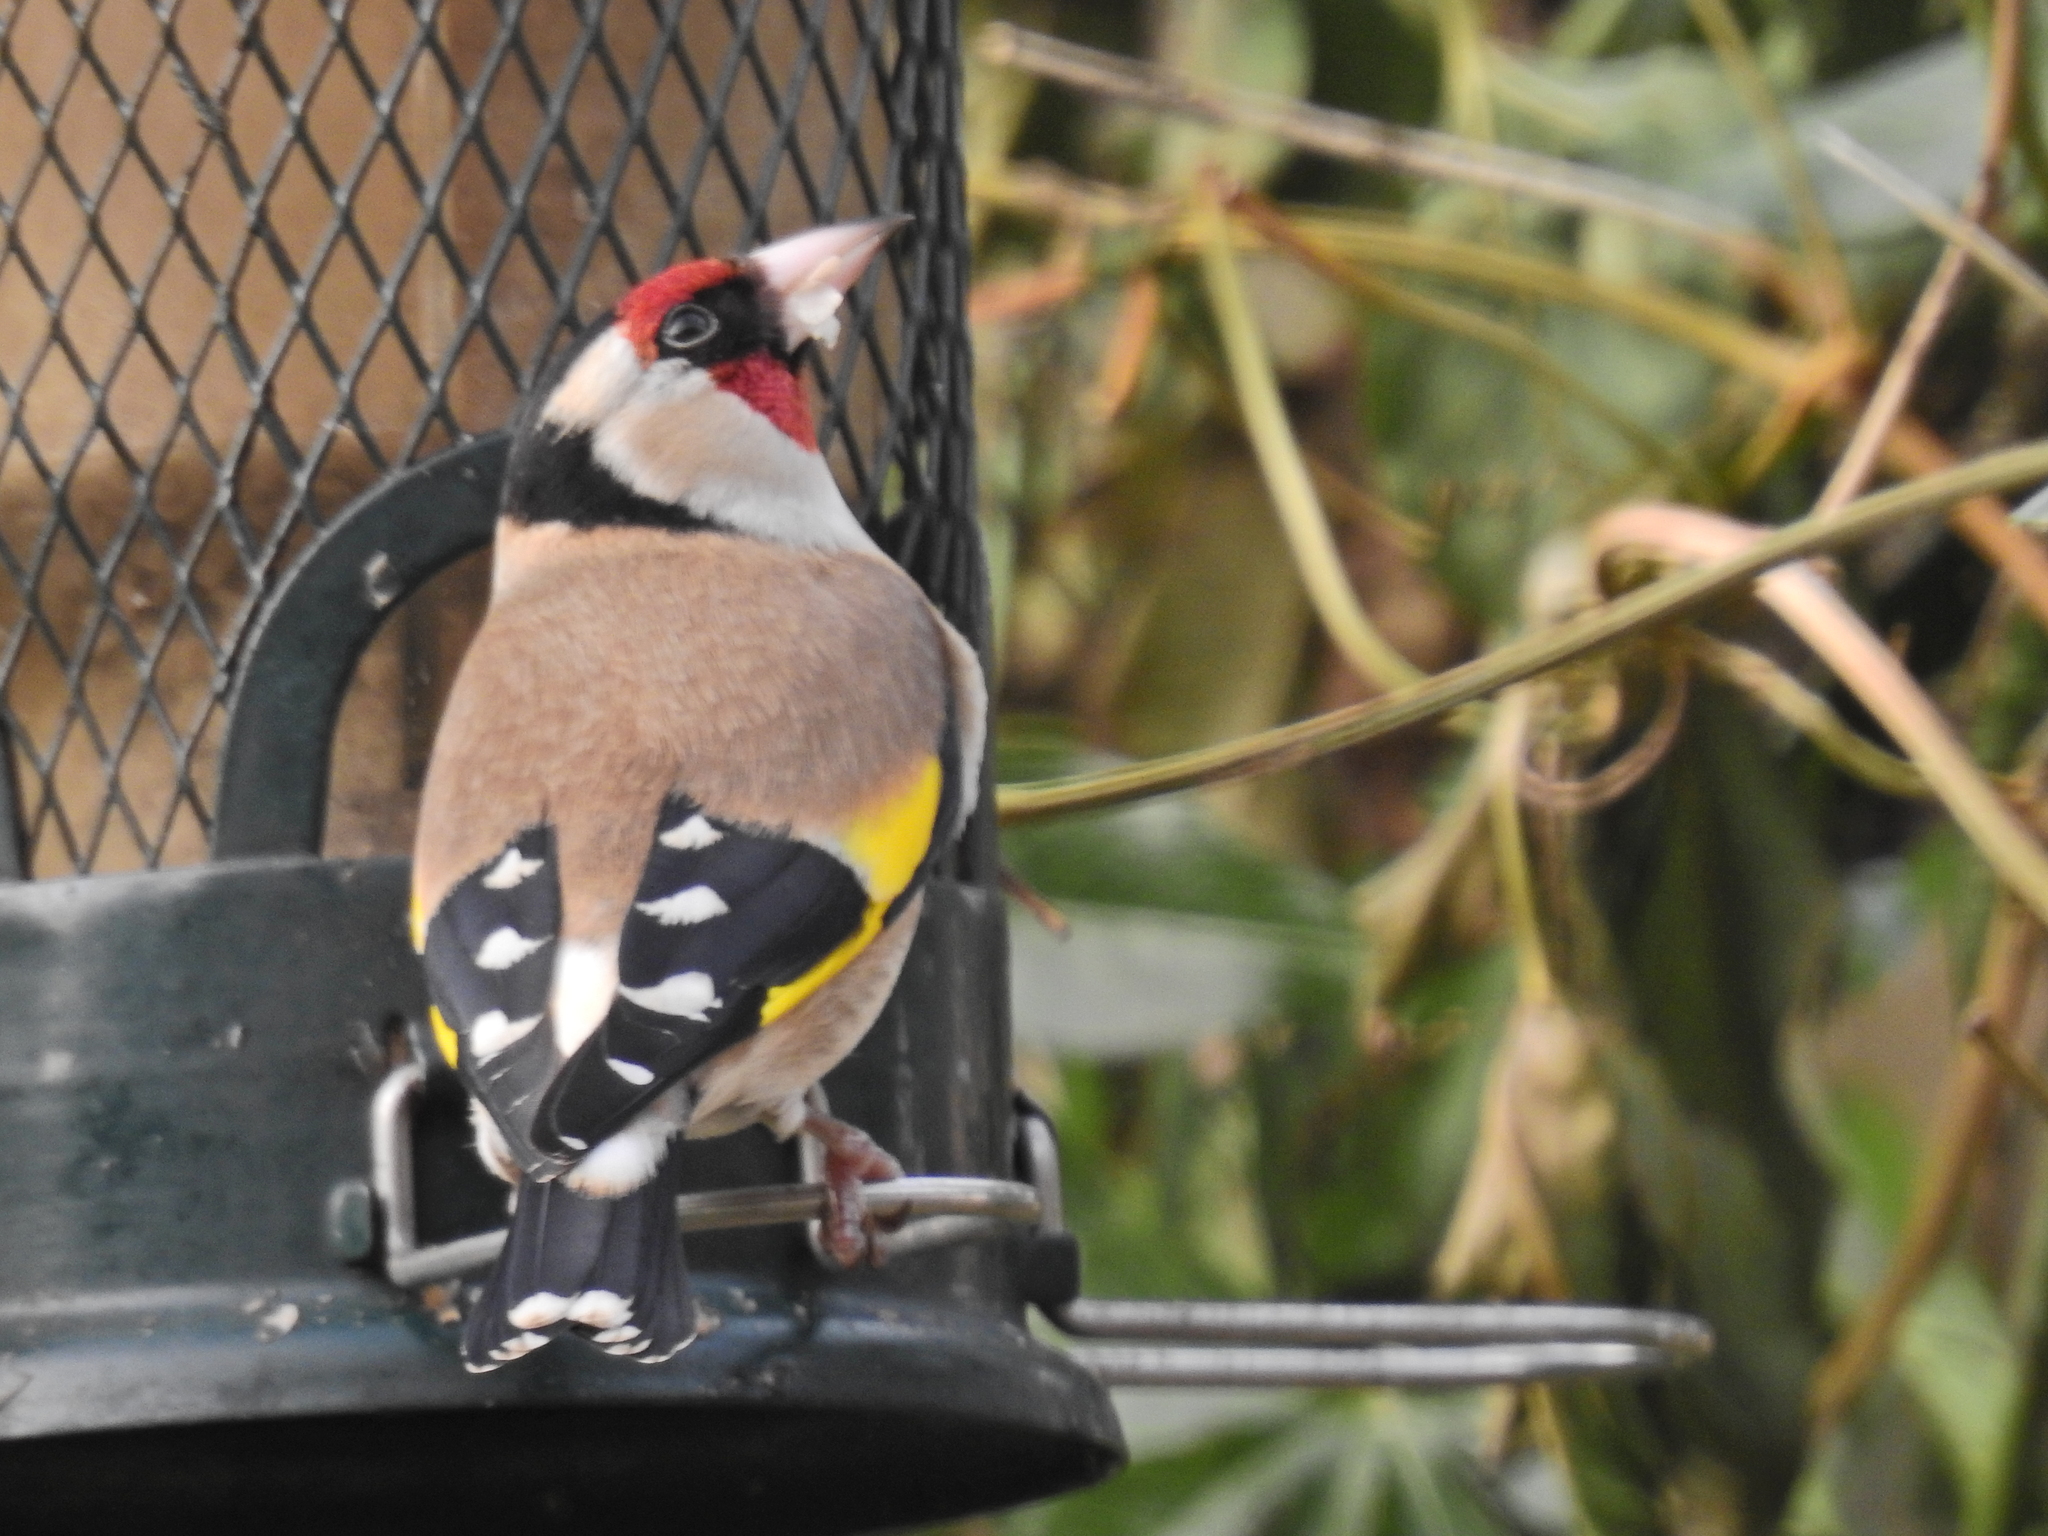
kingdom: Animalia
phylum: Chordata
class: Aves
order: Passeriformes
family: Fringillidae
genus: Carduelis
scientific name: Carduelis carduelis
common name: European goldfinch
